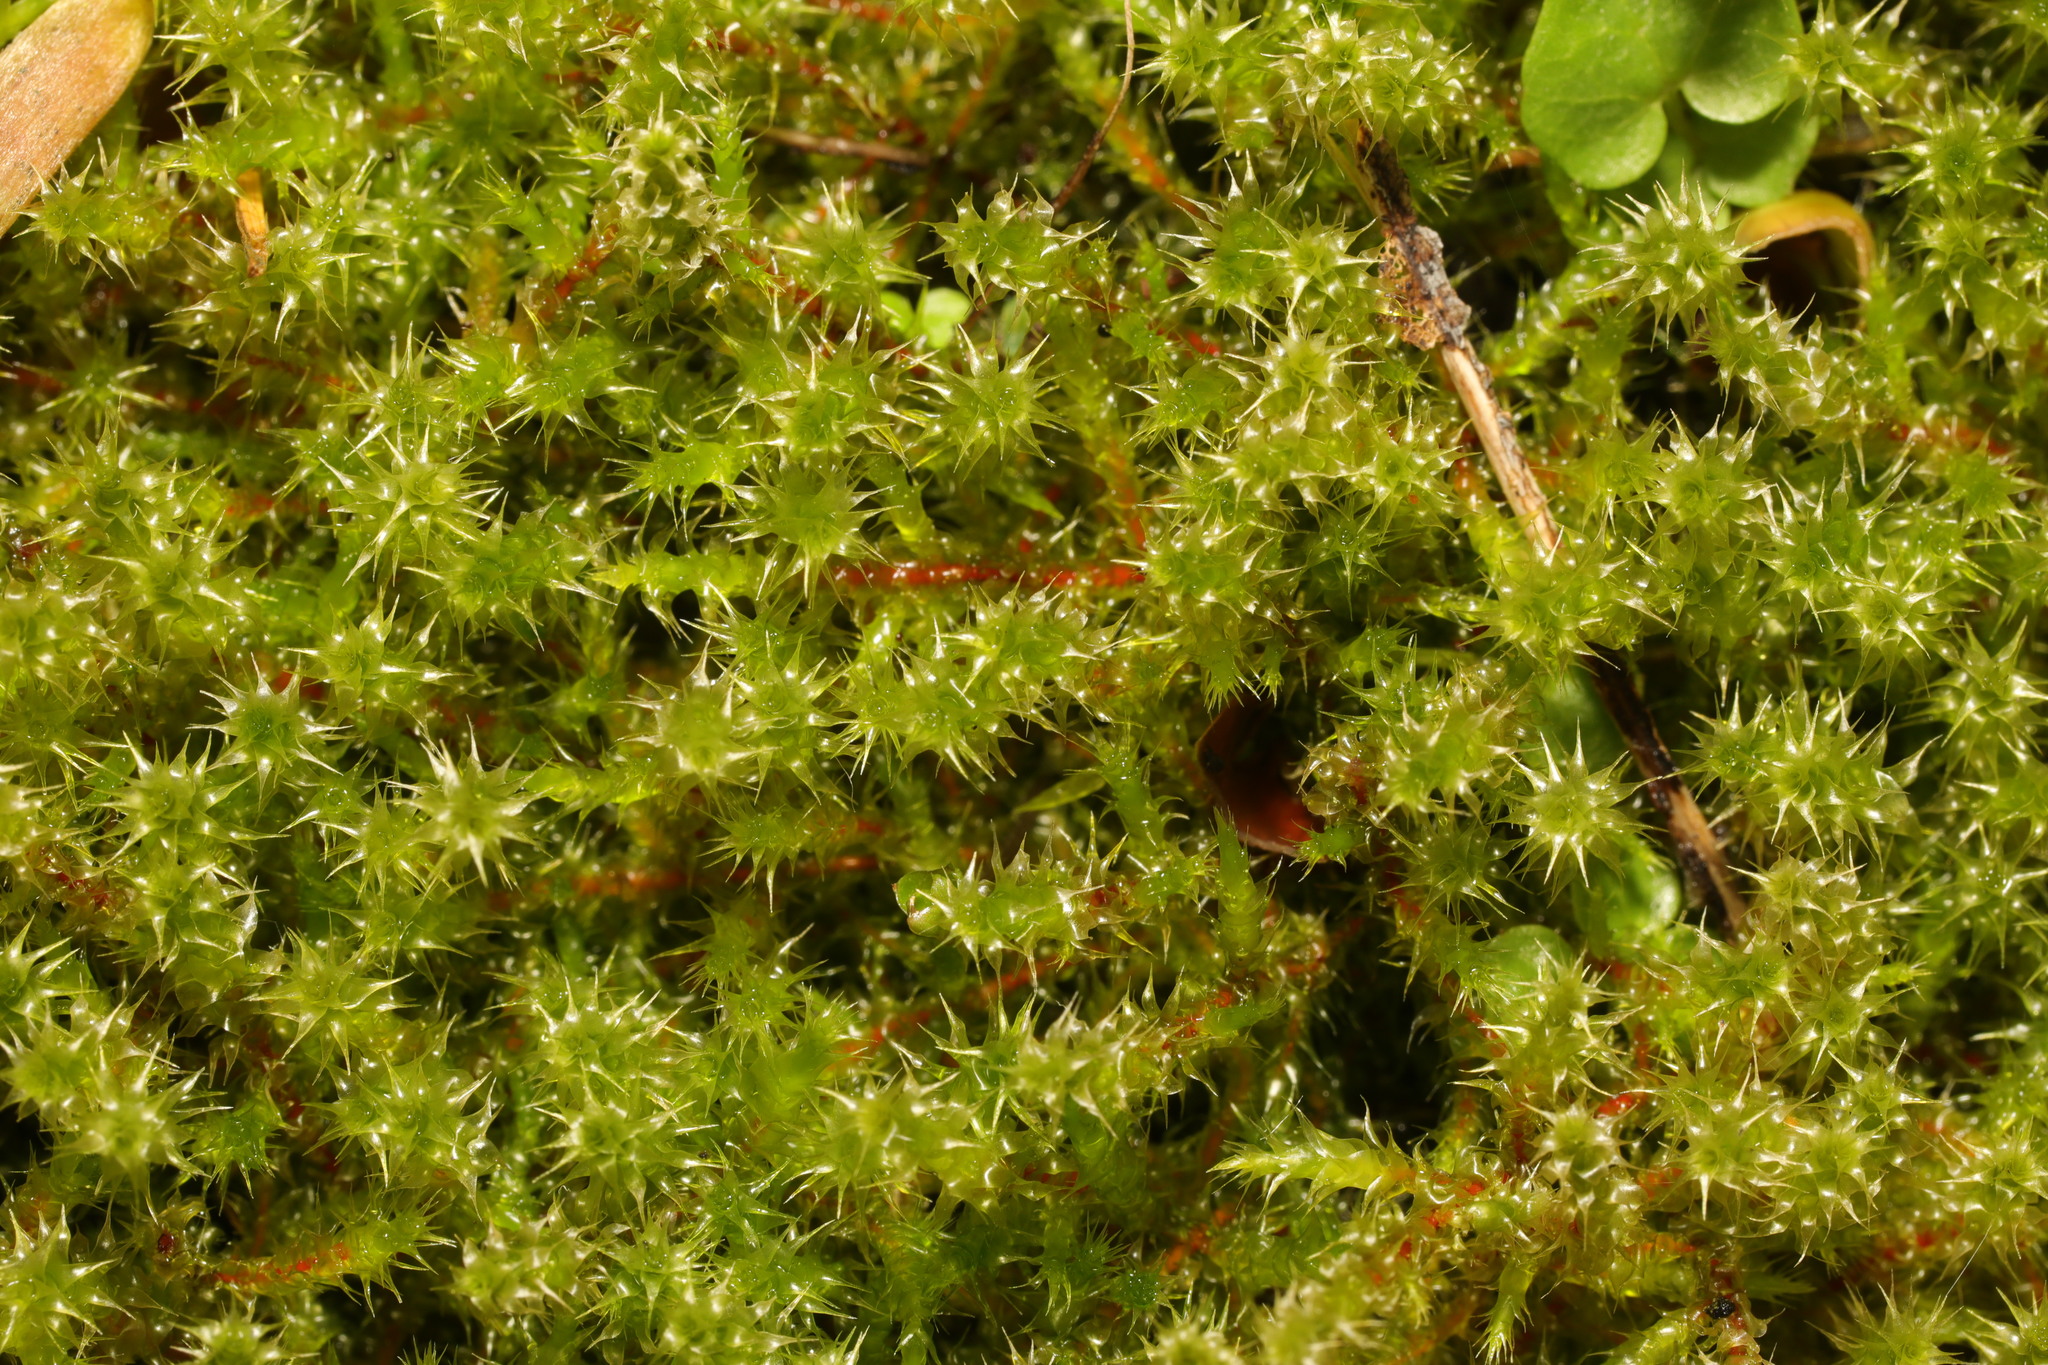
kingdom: Plantae
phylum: Bryophyta
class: Bryopsida
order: Hypnales
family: Hylocomiaceae
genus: Rhytidiadelphus
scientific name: Rhytidiadelphus squarrosus
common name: Springy turf-moss
